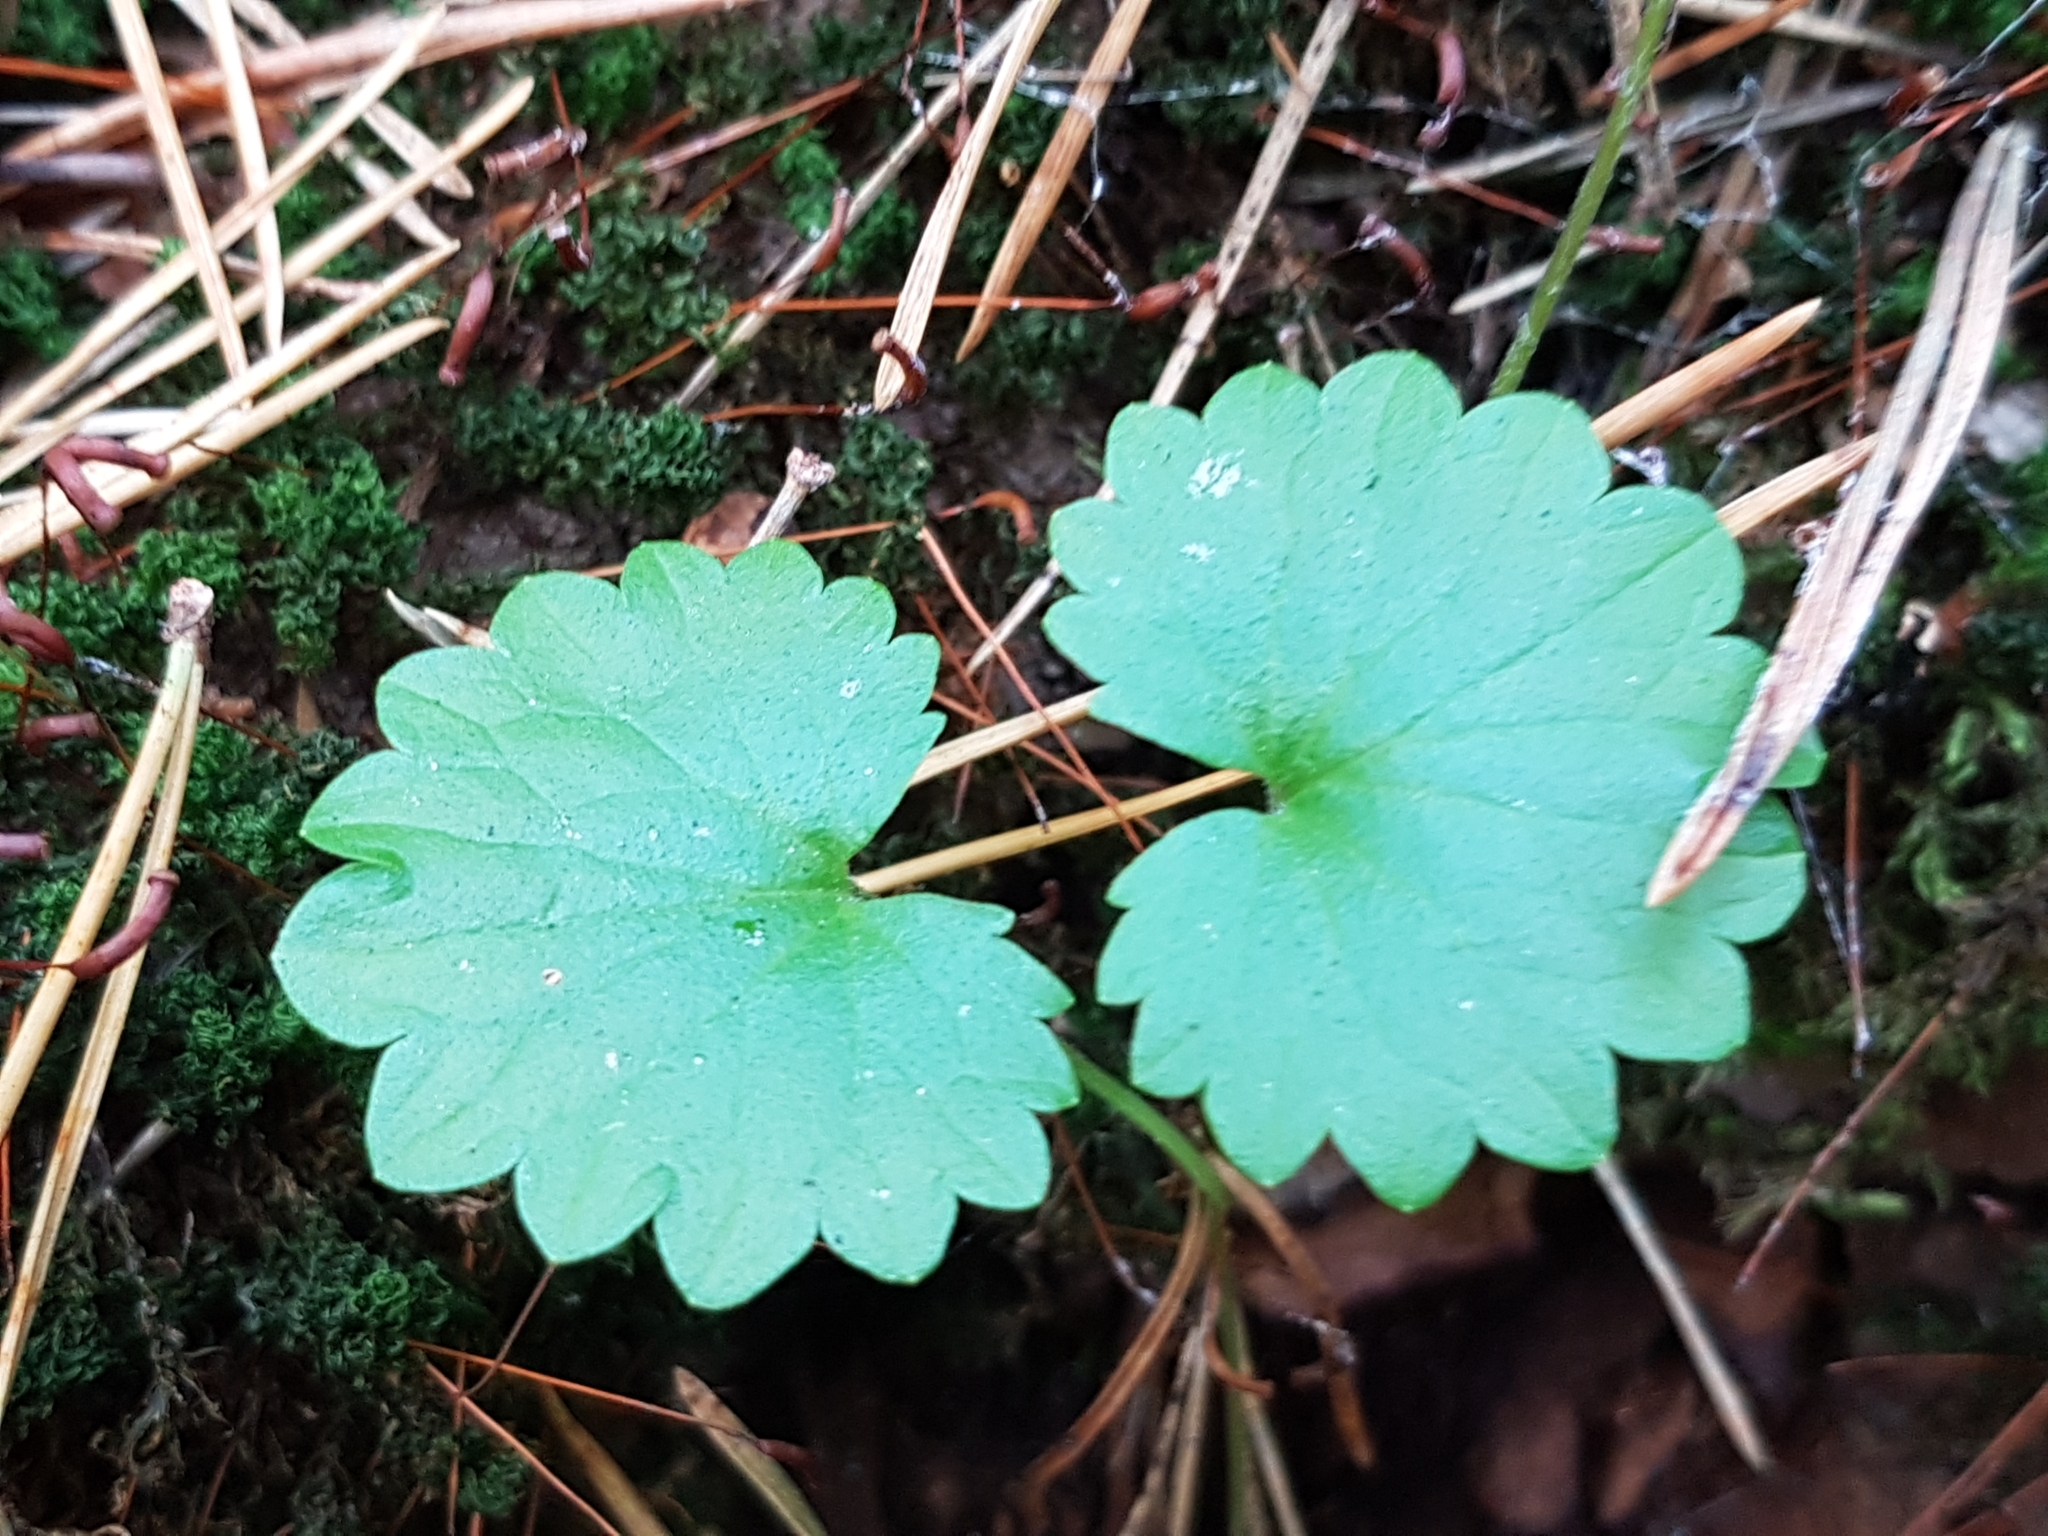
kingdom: Plantae
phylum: Tracheophyta
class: Magnoliopsida
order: Lamiales
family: Lamiaceae
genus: Glechoma
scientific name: Glechoma hederacea
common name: Ground ivy
